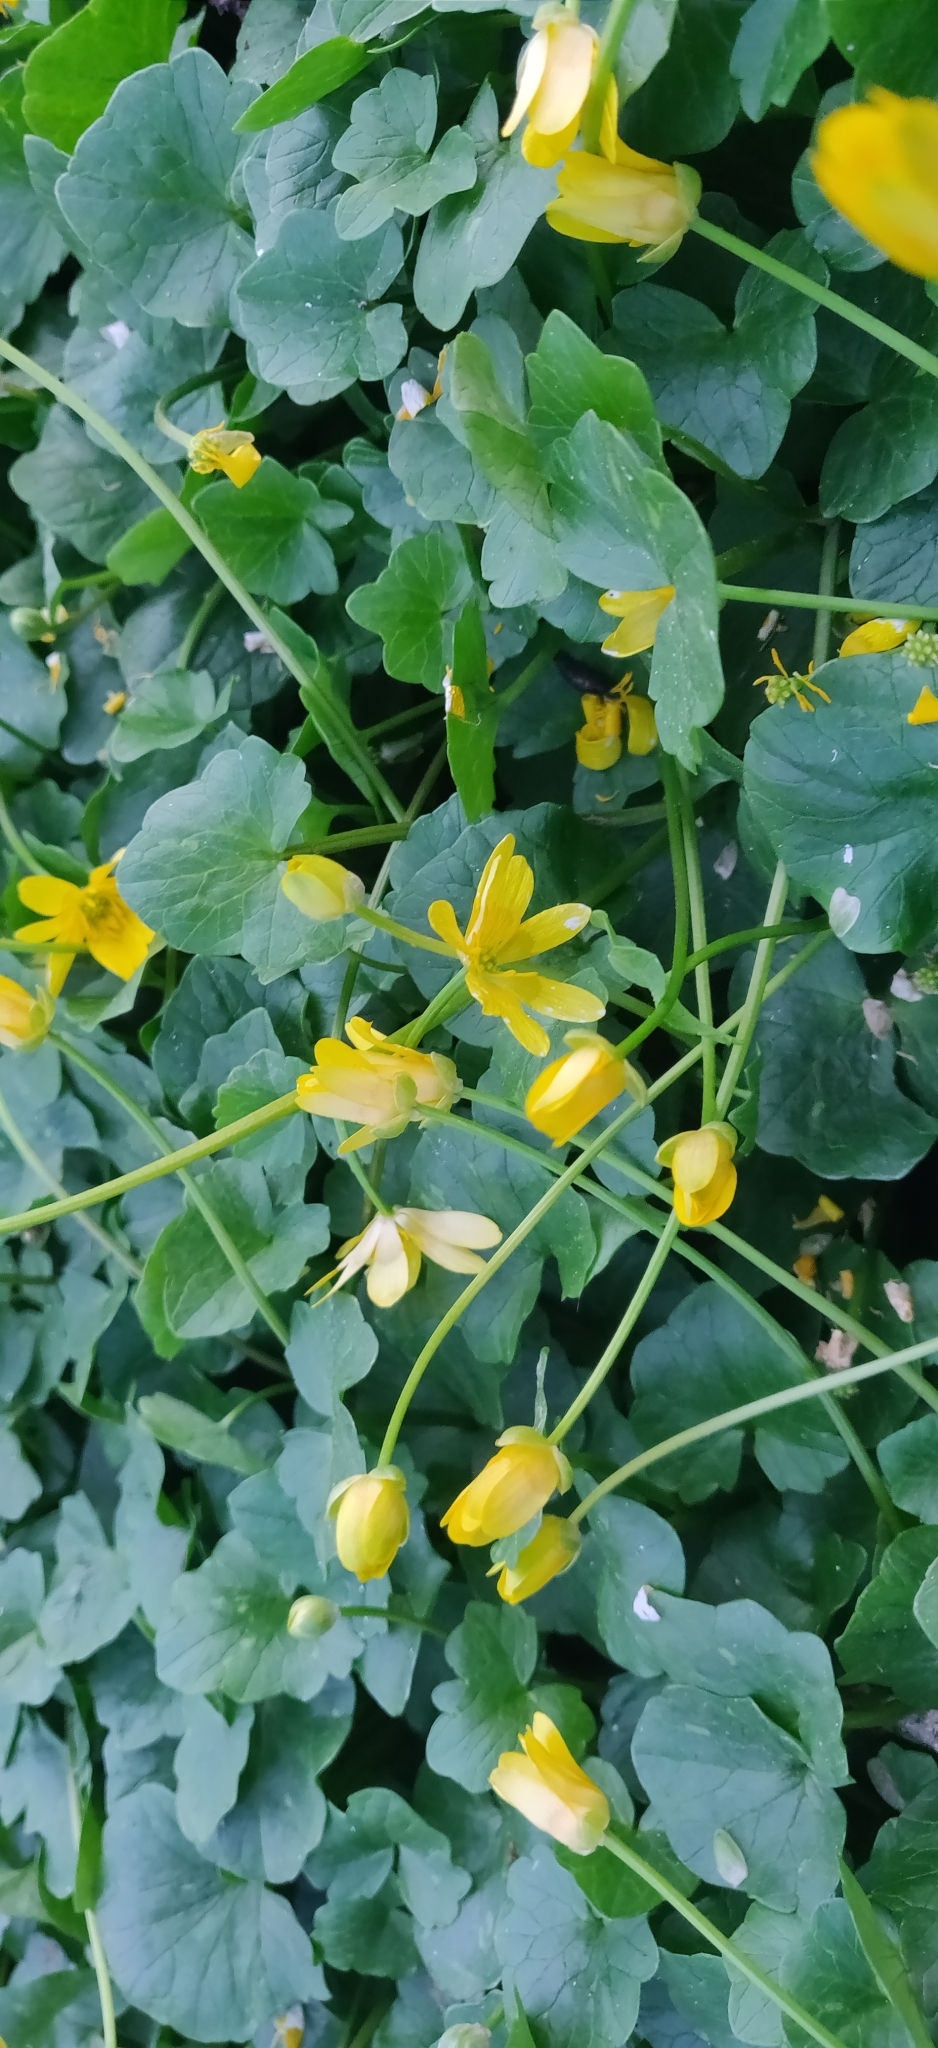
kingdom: Plantae
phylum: Tracheophyta
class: Magnoliopsida
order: Ranunculales
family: Ranunculaceae
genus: Ficaria
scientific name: Ficaria verna
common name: Lesser celandine
